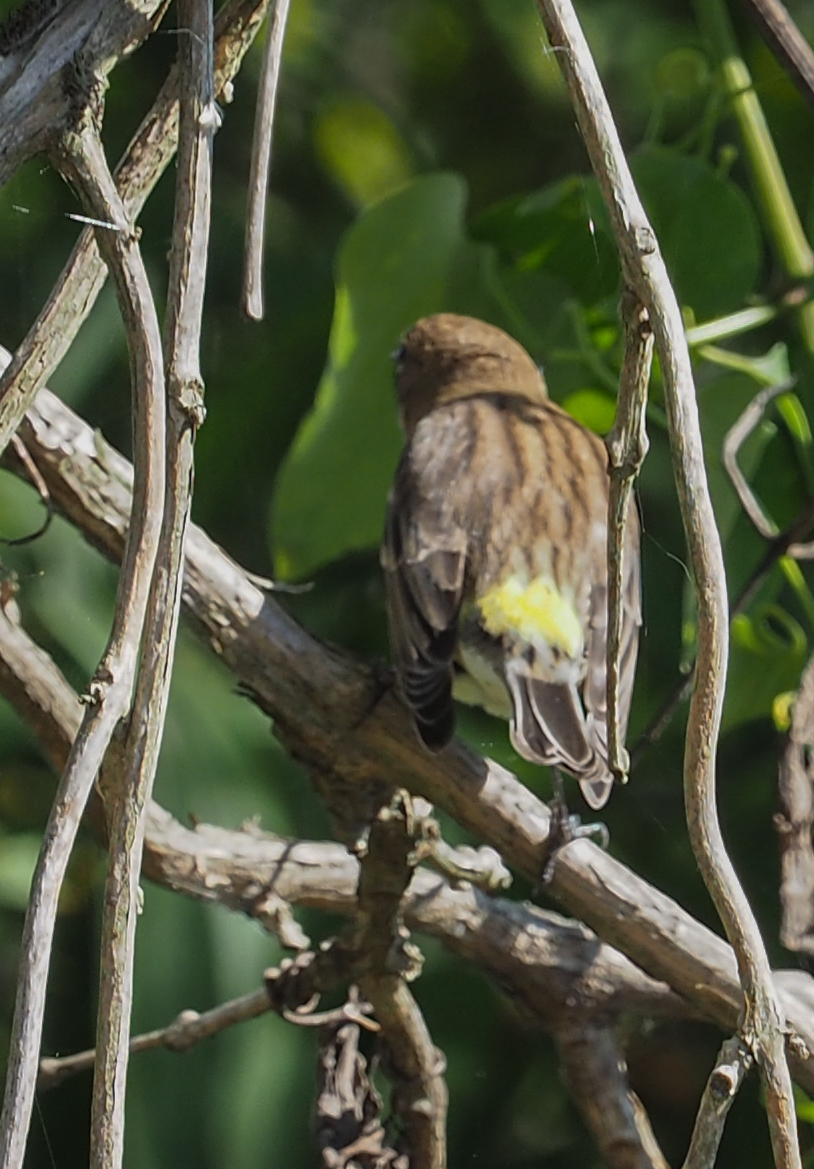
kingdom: Animalia
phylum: Chordata
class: Aves
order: Passeriformes
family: Parulidae
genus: Setophaga
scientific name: Setophaga coronata
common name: Myrtle warbler
